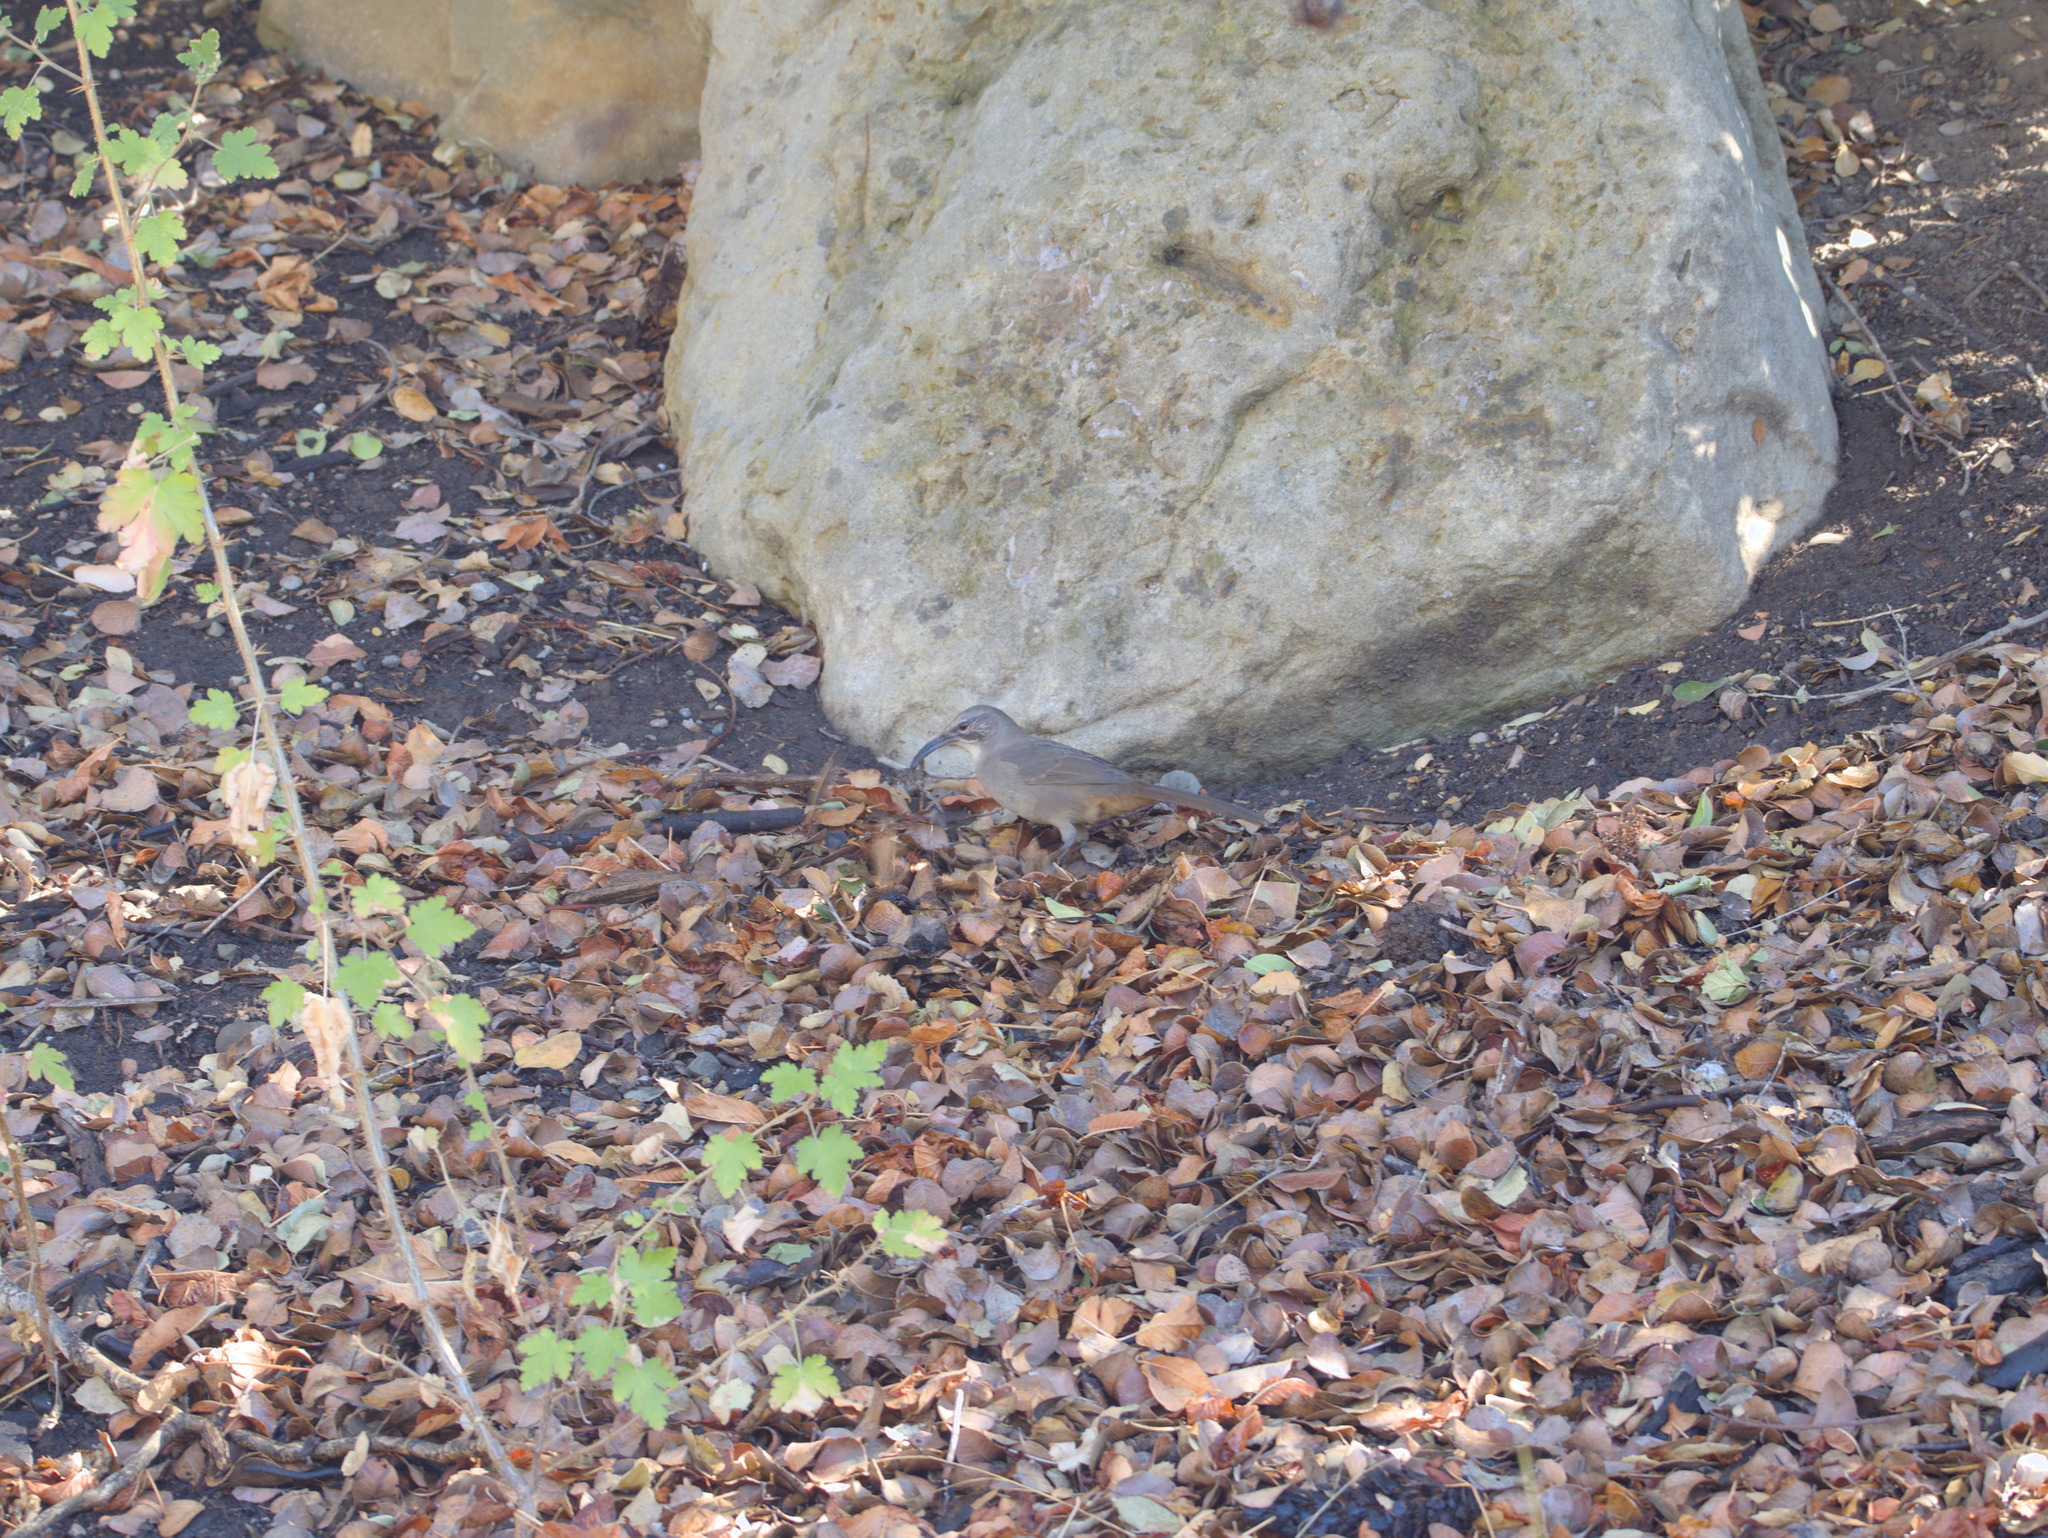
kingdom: Animalia
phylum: Chordata
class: Aves
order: Passeriformes
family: Mimidae
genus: Toxostoma
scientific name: Toxostoma redivivum
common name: California thrasher
